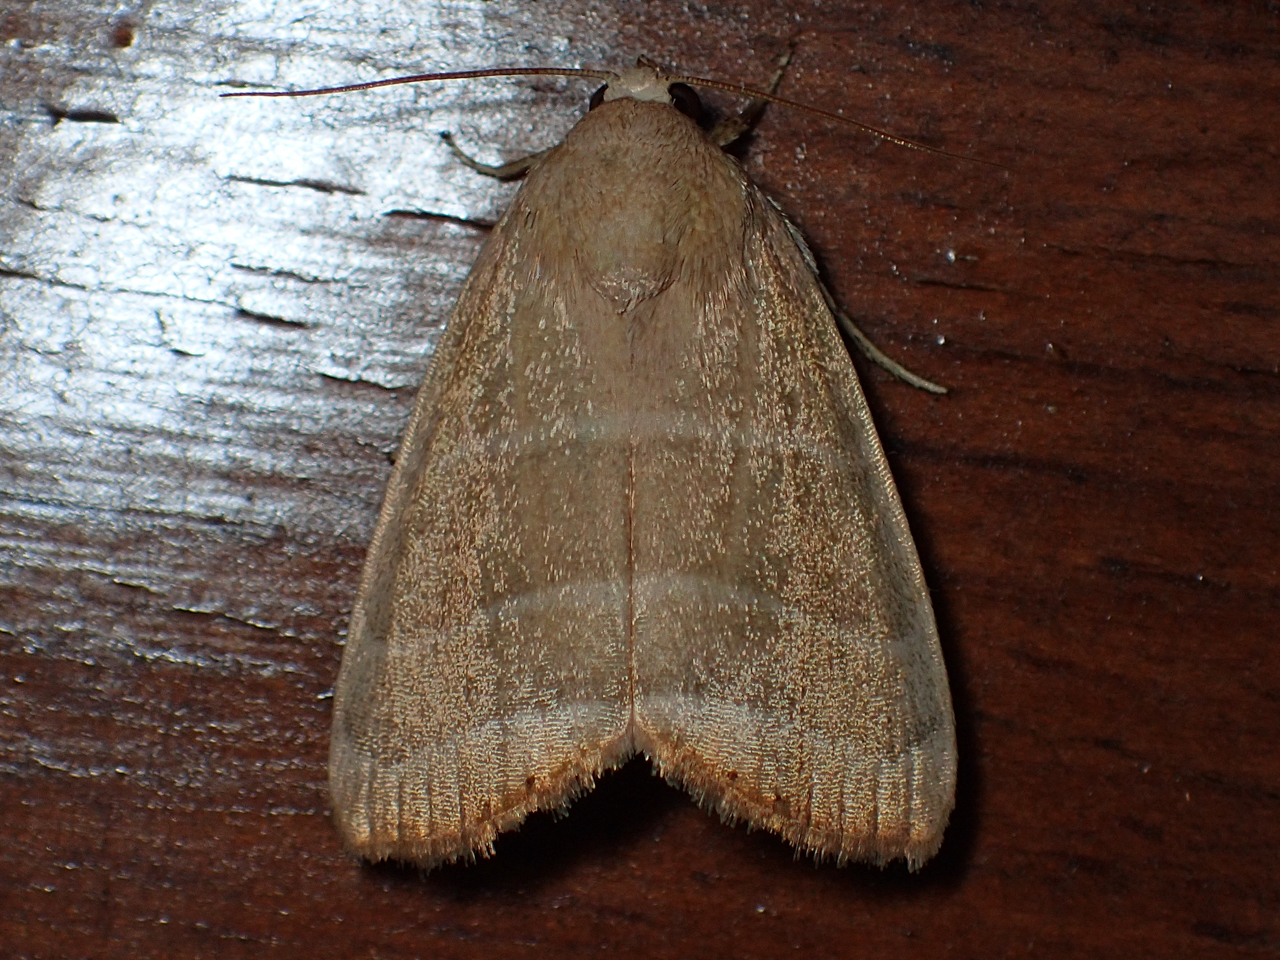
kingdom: Animalia
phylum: Arthropoda
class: Insecta
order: Lepidoptera
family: Noctuidae
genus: Bagisara
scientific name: Bagisara rectifascia
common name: Straight lined mallow moth
